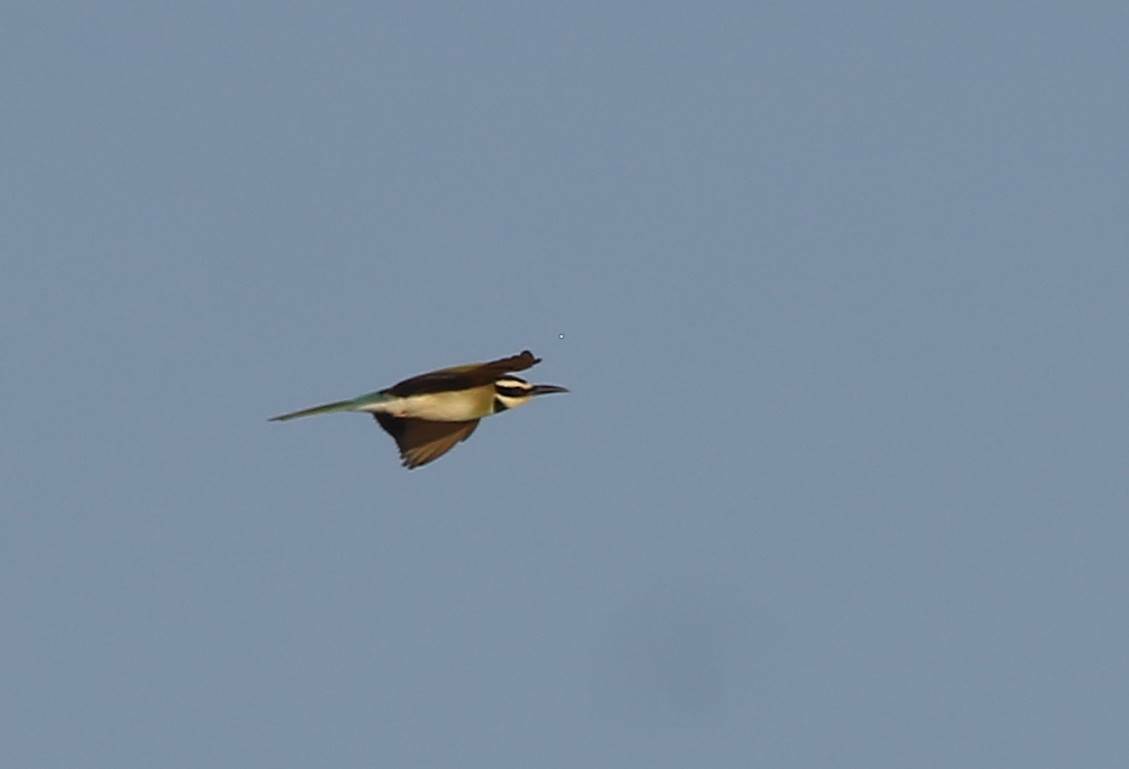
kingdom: Animalia
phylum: Chordata
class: Aves
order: Coraciiformes
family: Meropidae
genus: Merops
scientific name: Merops albicollis
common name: White-throated bee-eater
